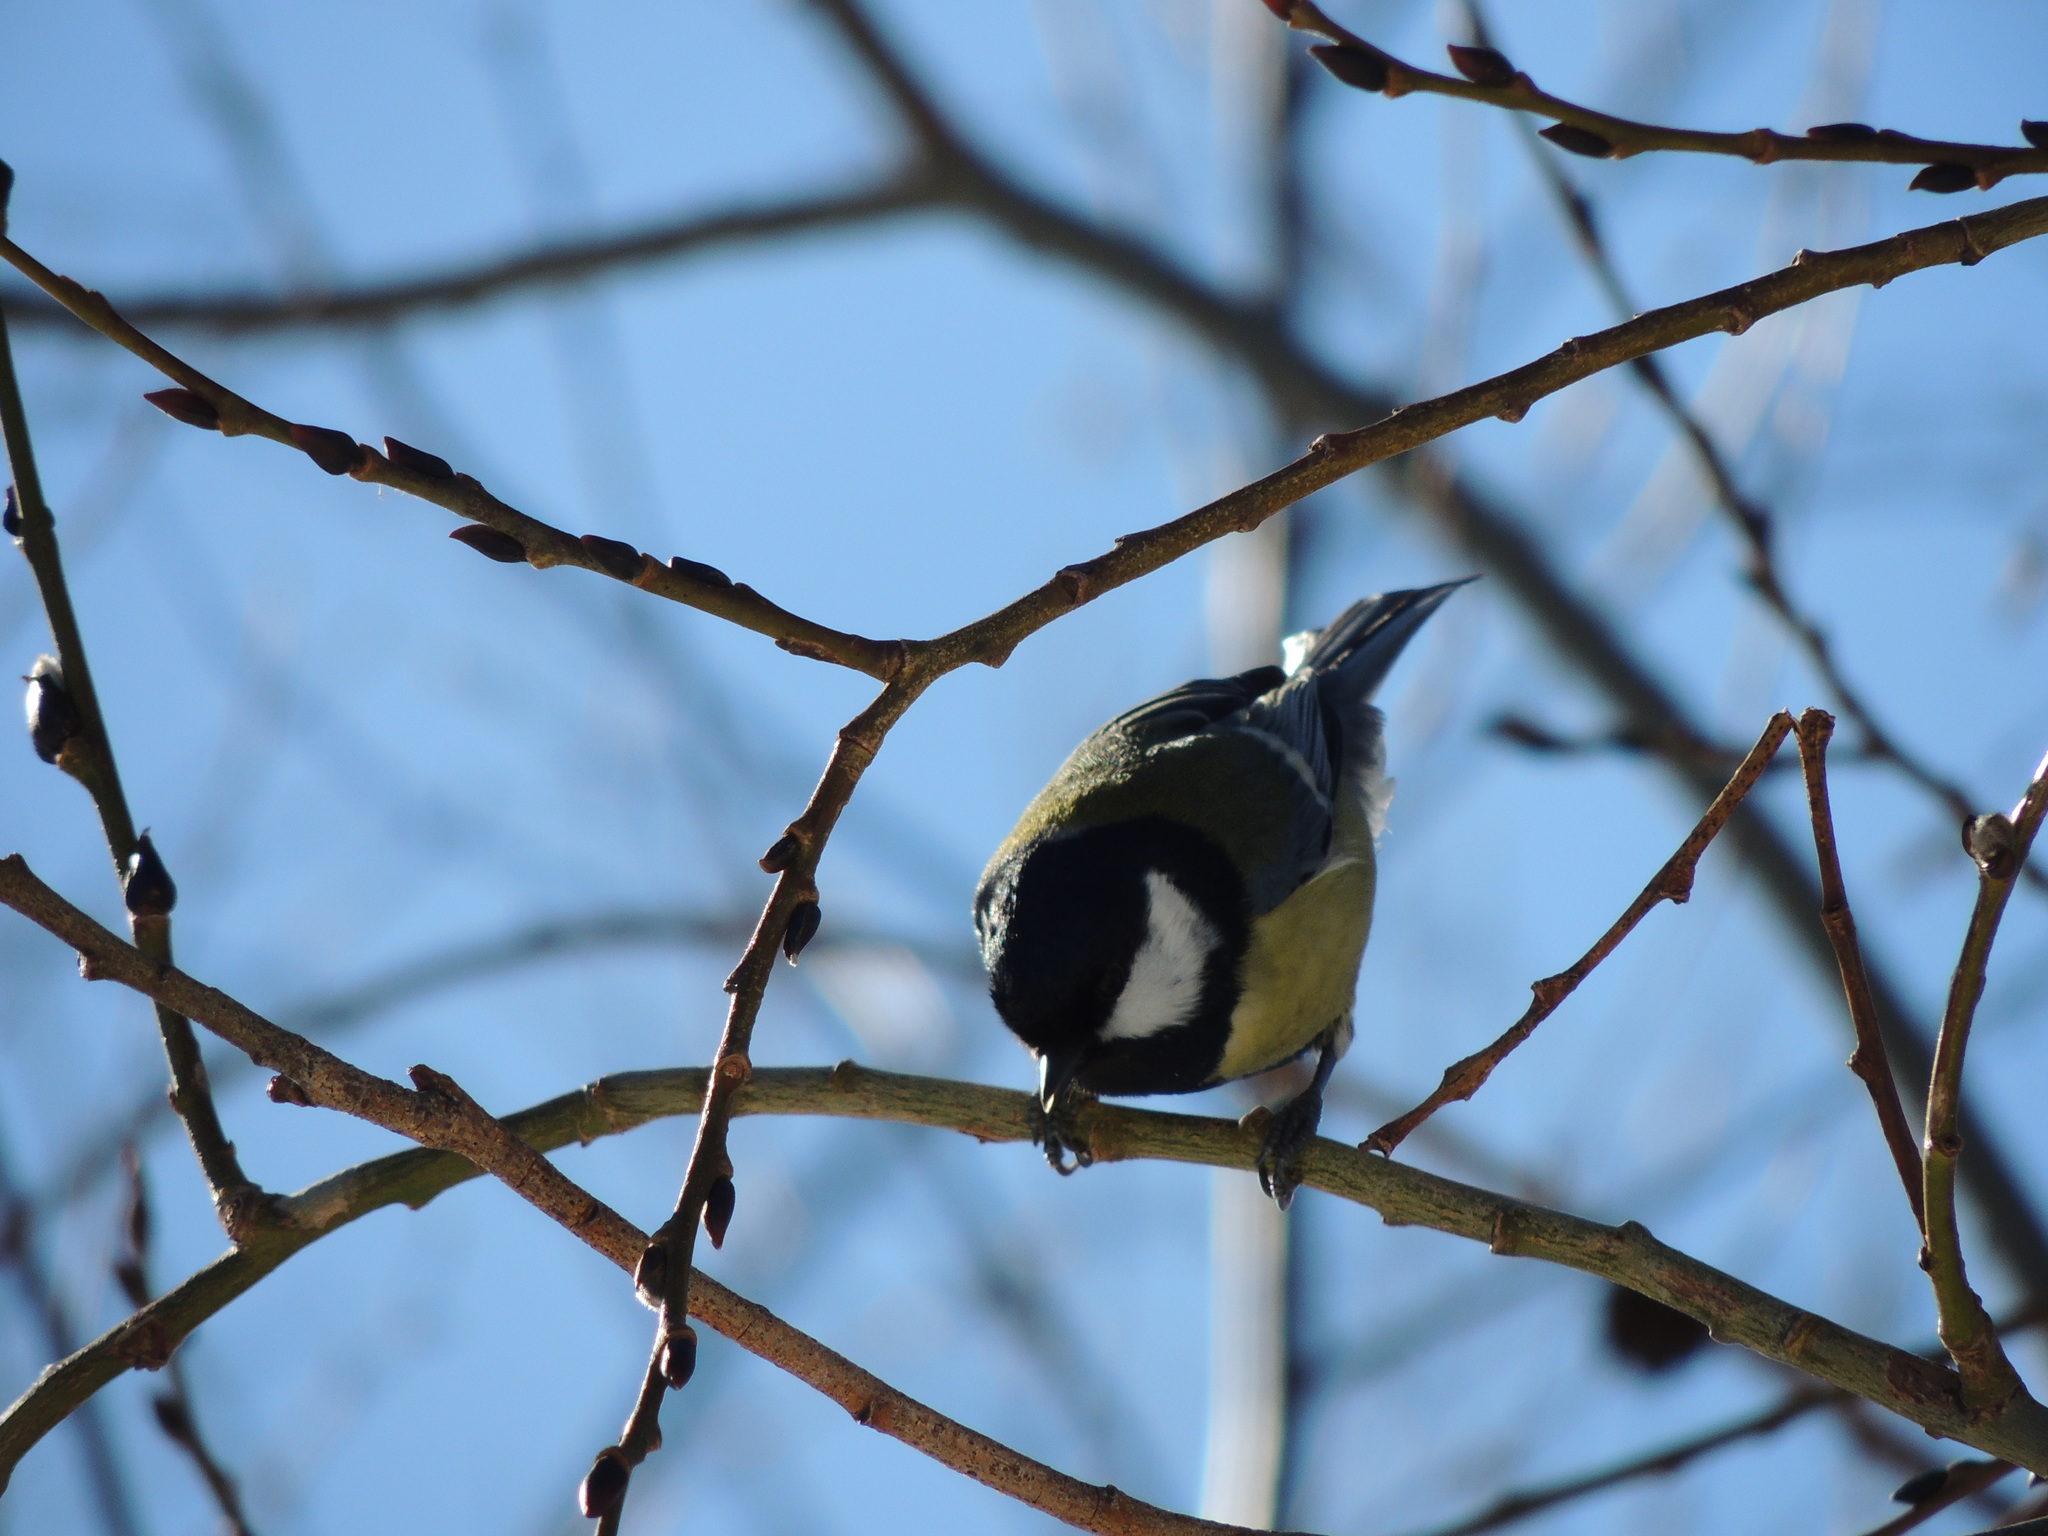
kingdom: Animalia
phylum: Chordata
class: Aves
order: Passeriformes
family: Paridae
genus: Parus
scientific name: Parus major
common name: Great tit
